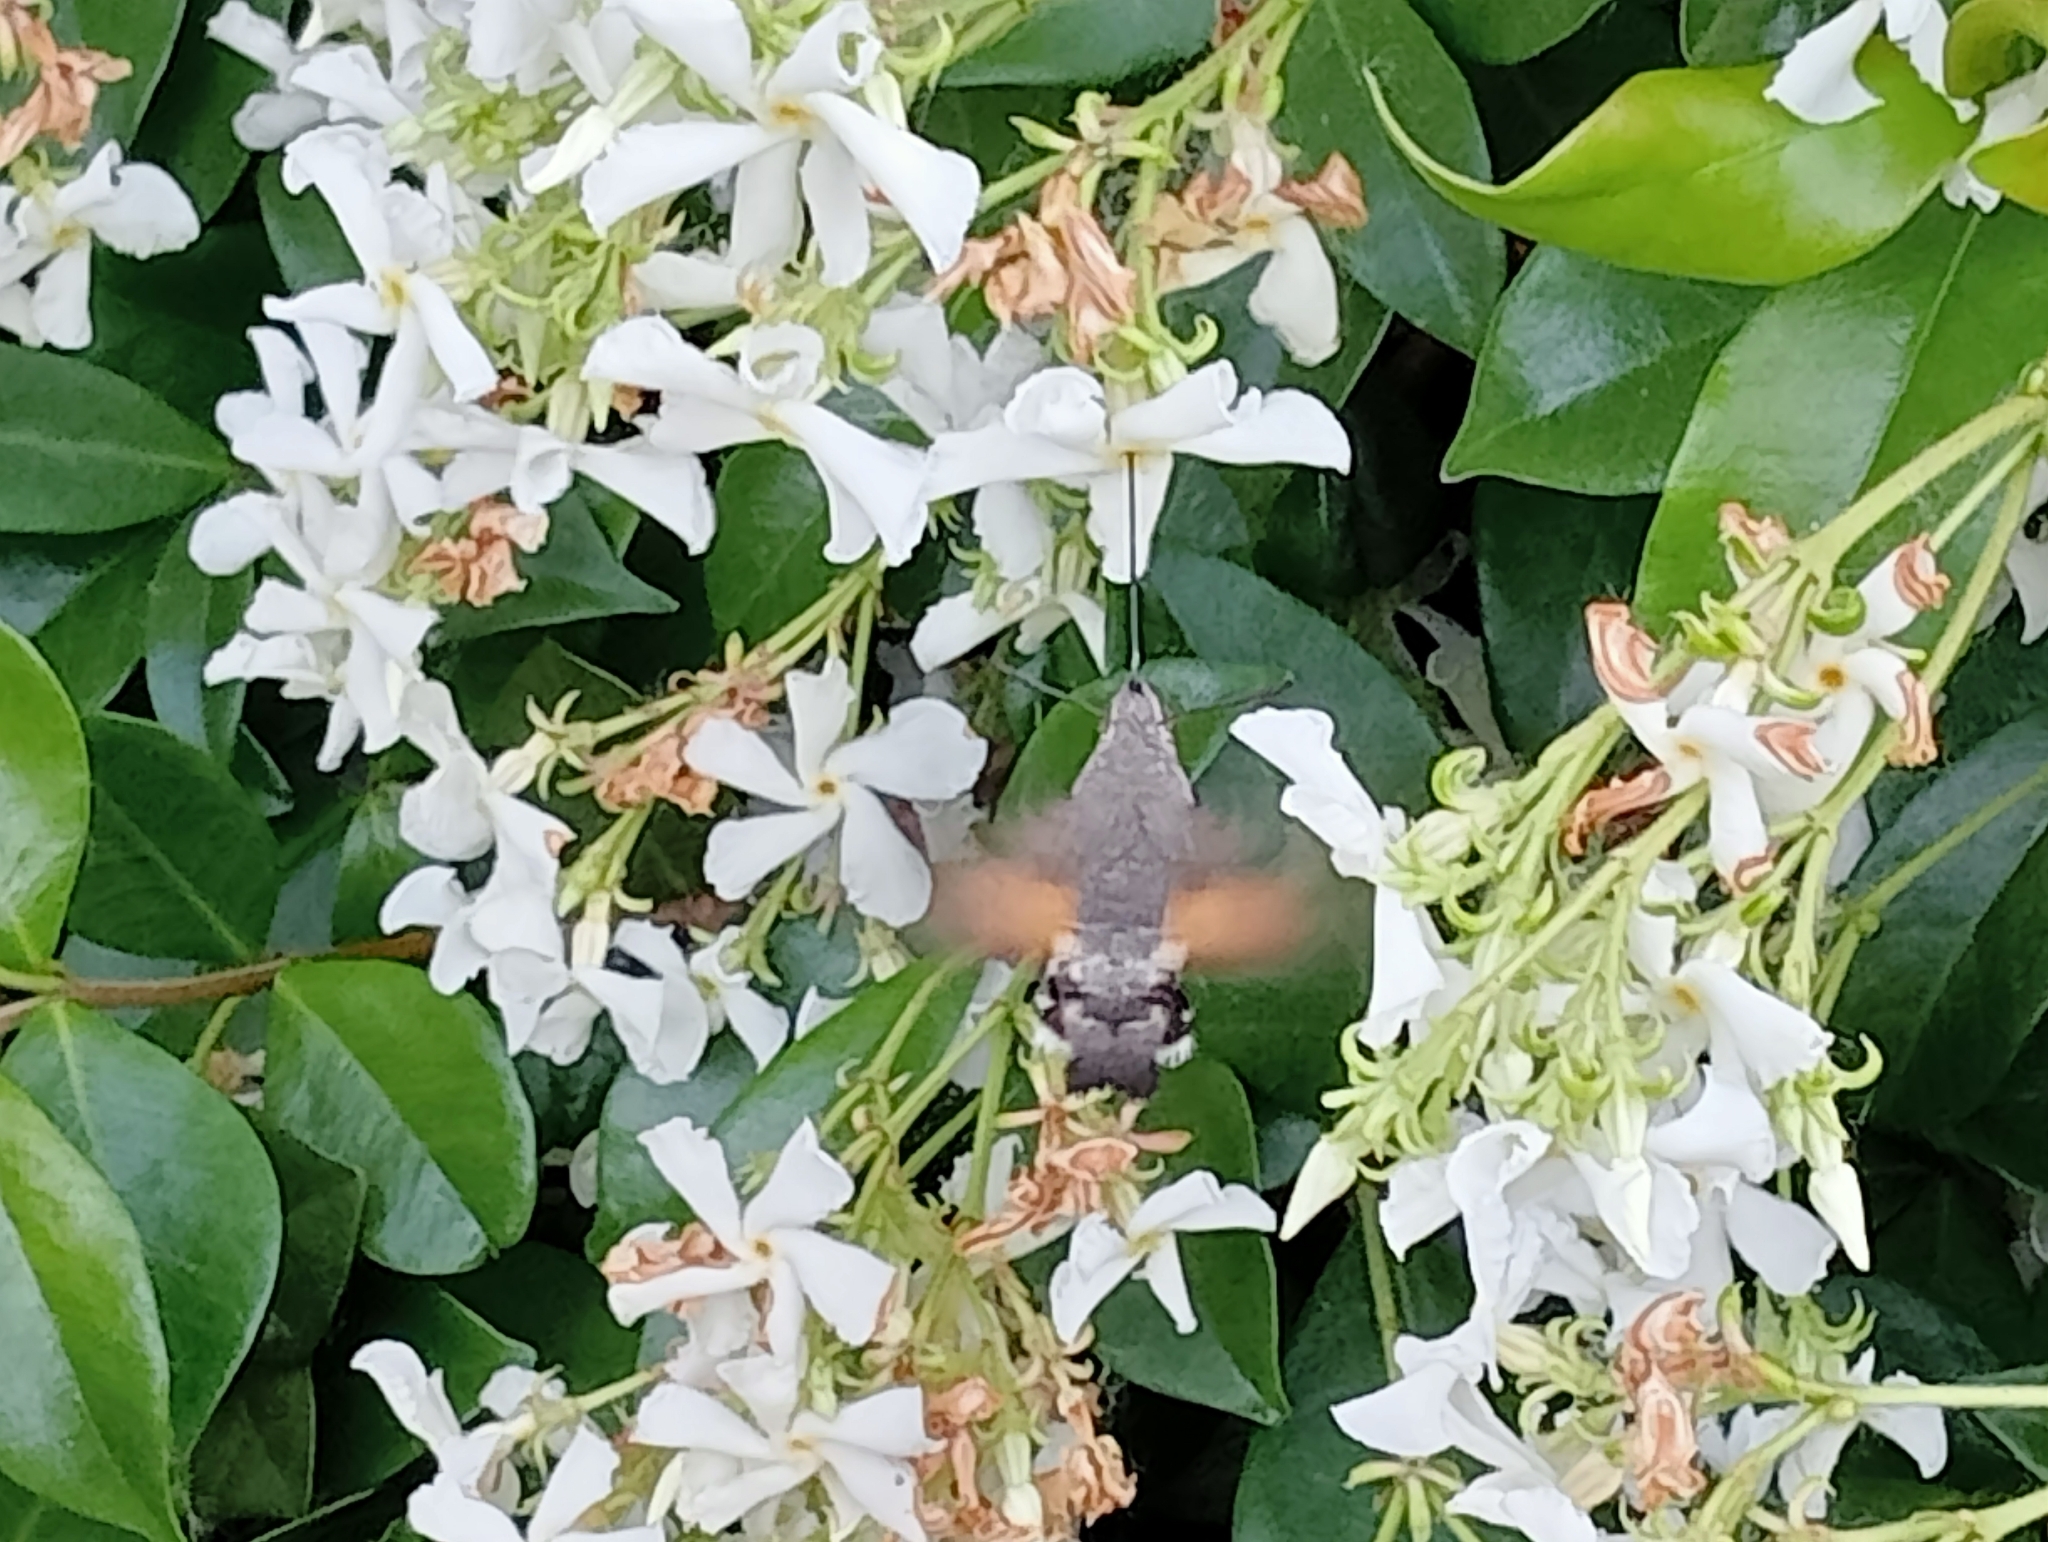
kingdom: Animalia
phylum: Arthropoda
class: Insecta
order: Lepidoptera
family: Sphingidae
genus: Macroglossum
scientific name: Macroglossum stellatarum
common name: Humming-bird hawk-moth
